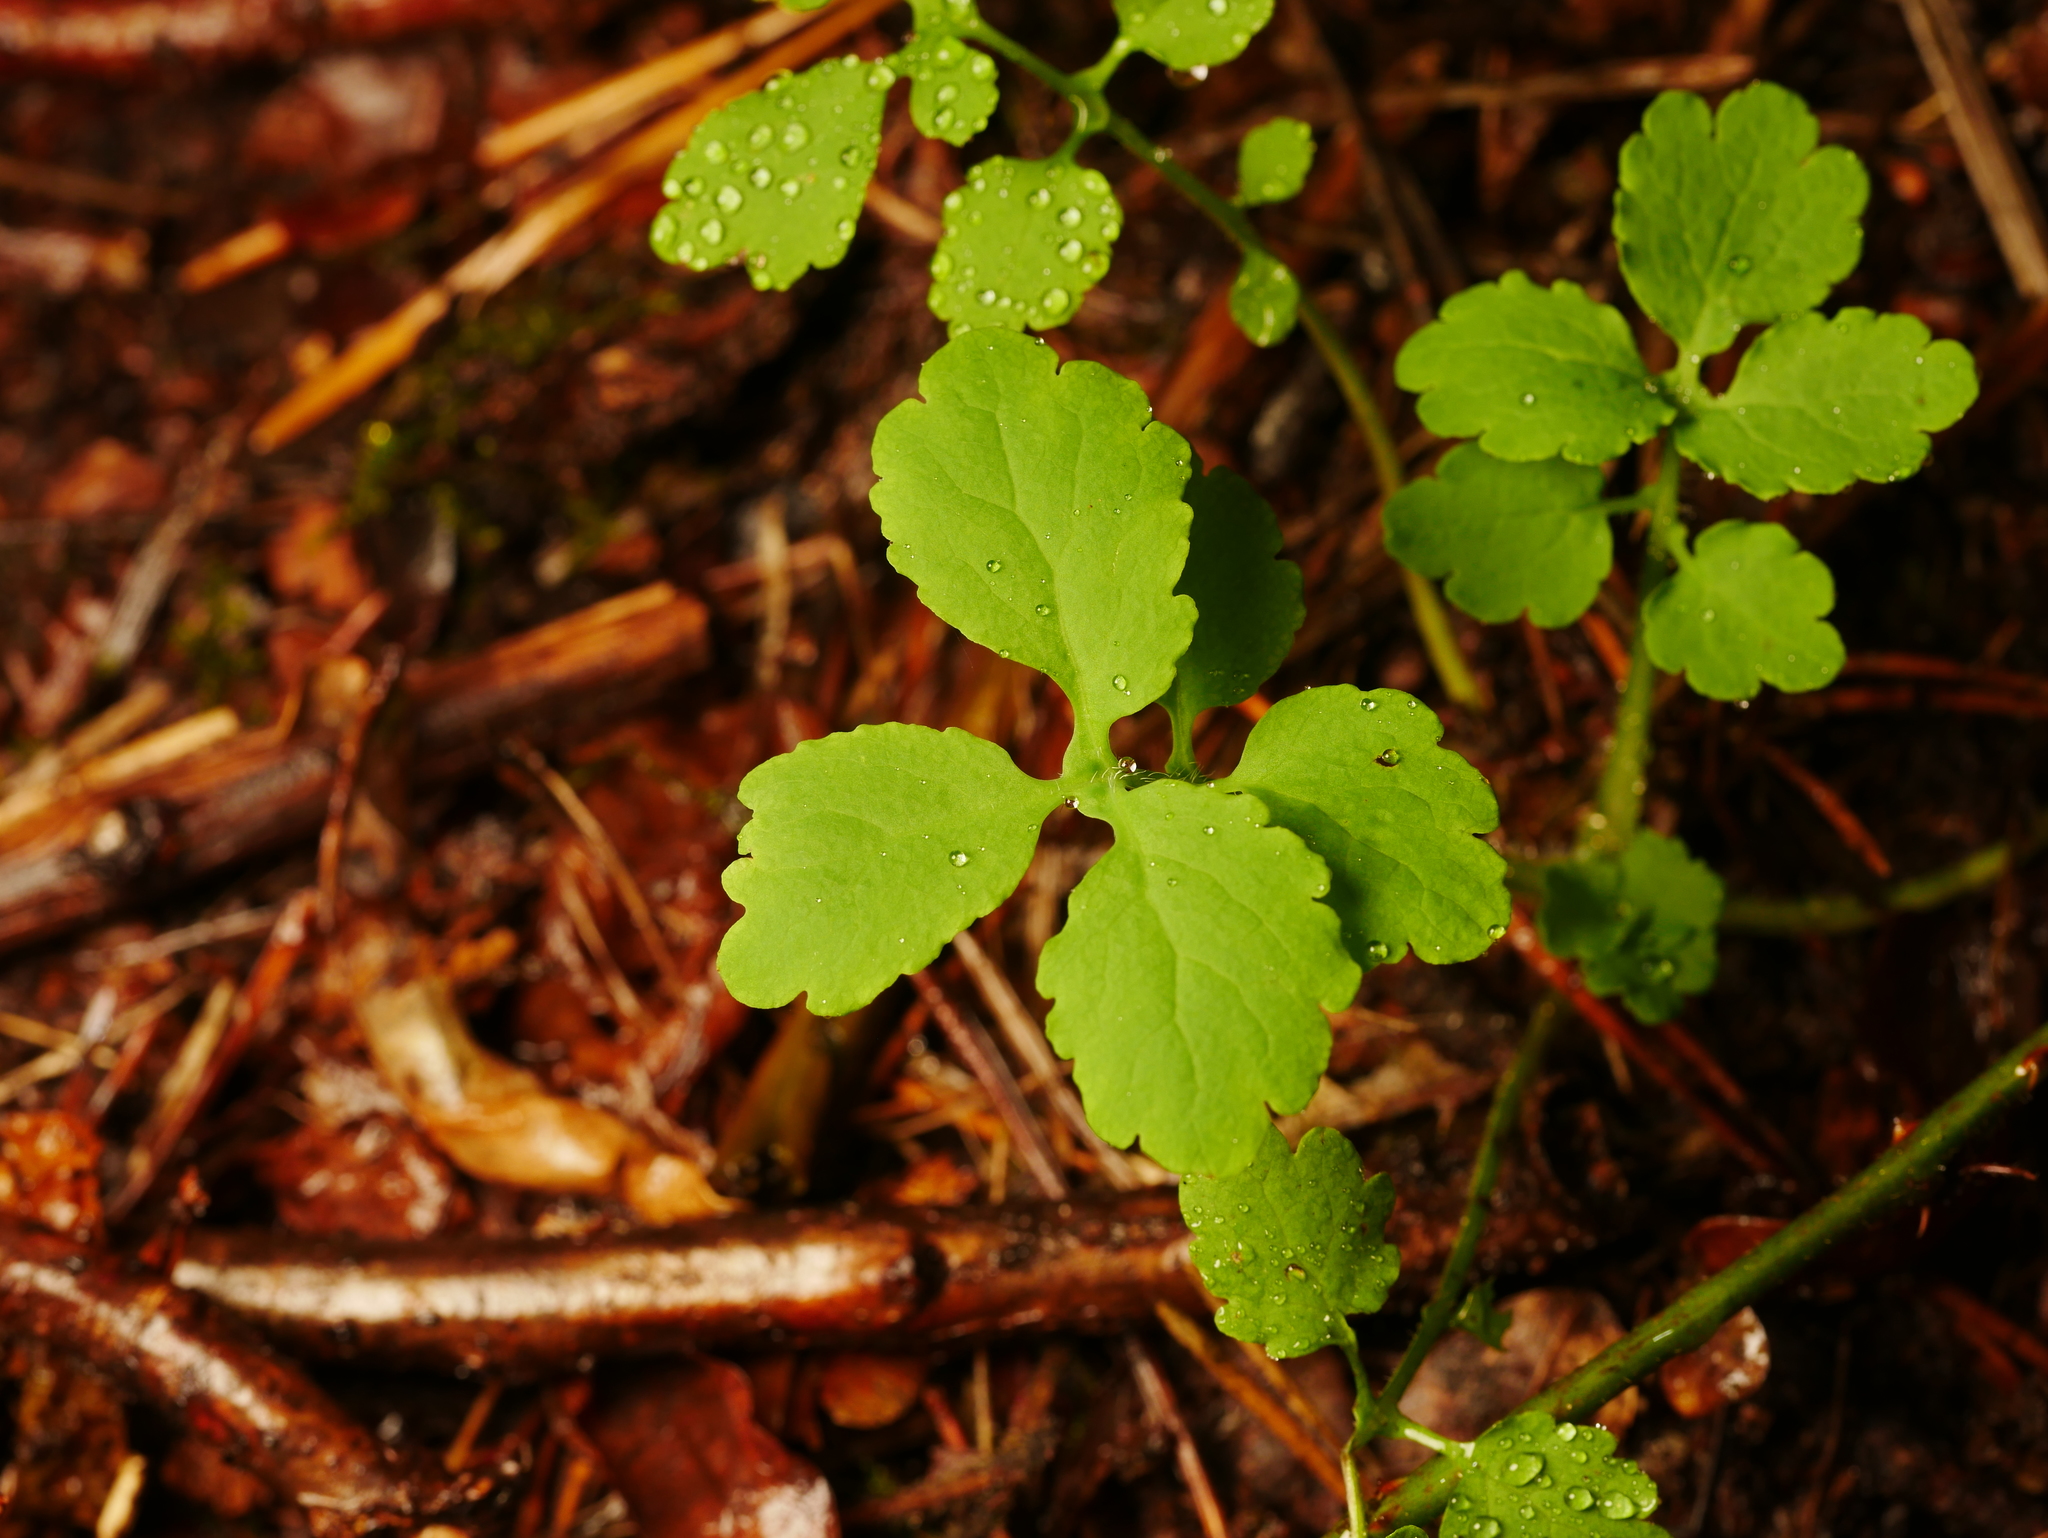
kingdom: Plantae
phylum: Tracheophyta
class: Magnoliopsida
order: Ranunculales
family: Papaveraceae
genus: Chelidonium
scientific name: Chelidonium majus
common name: Greater celandine
